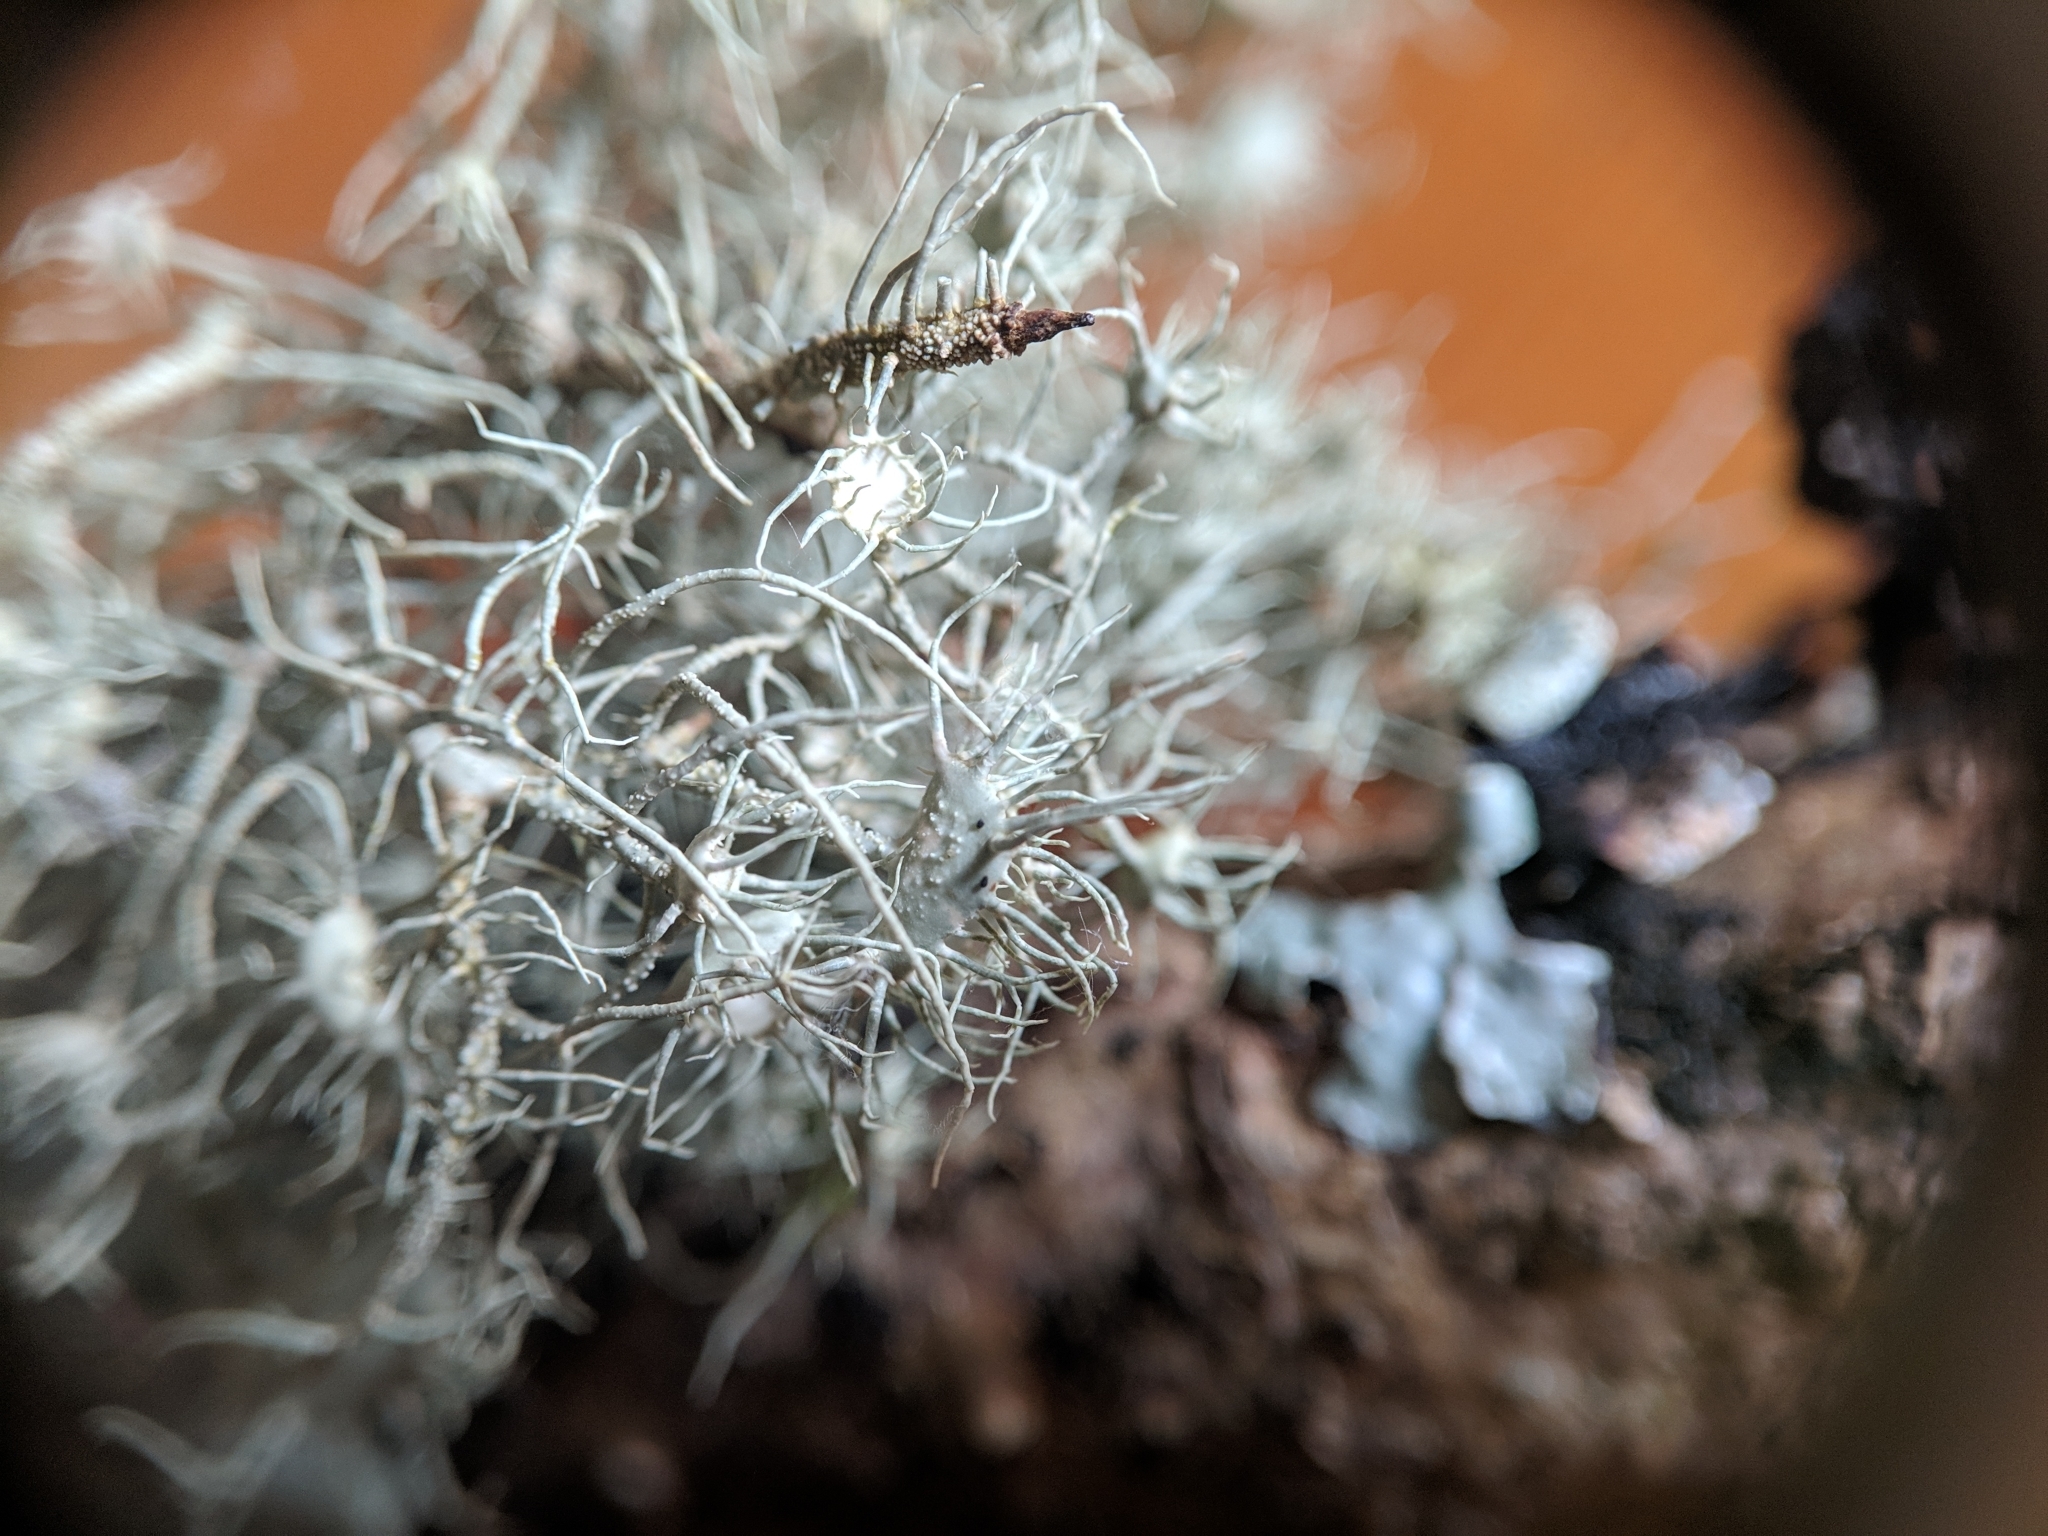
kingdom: Fungi
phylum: Ascomycota
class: Lecanoromycetes
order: Lecanorales
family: Parmeliaceae
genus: Usnea
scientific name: Usnea florida
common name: Witches' whiskers lichen
